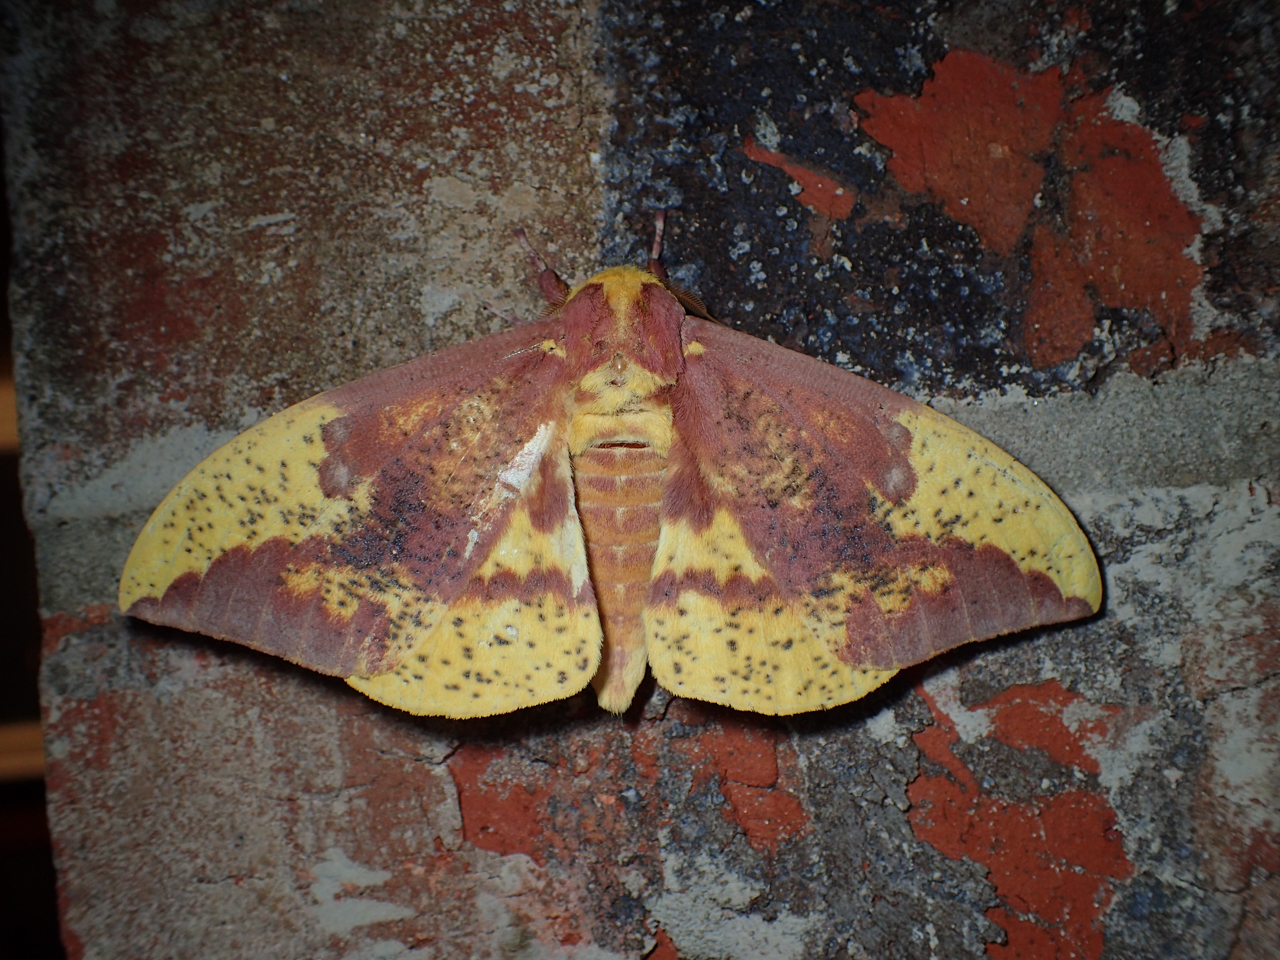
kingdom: Animalia
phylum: Arthropoda
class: Insecta
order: Lepidoptera
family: Saturniidae
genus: Eacles
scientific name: Eacles imperialis
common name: Imperial moth
